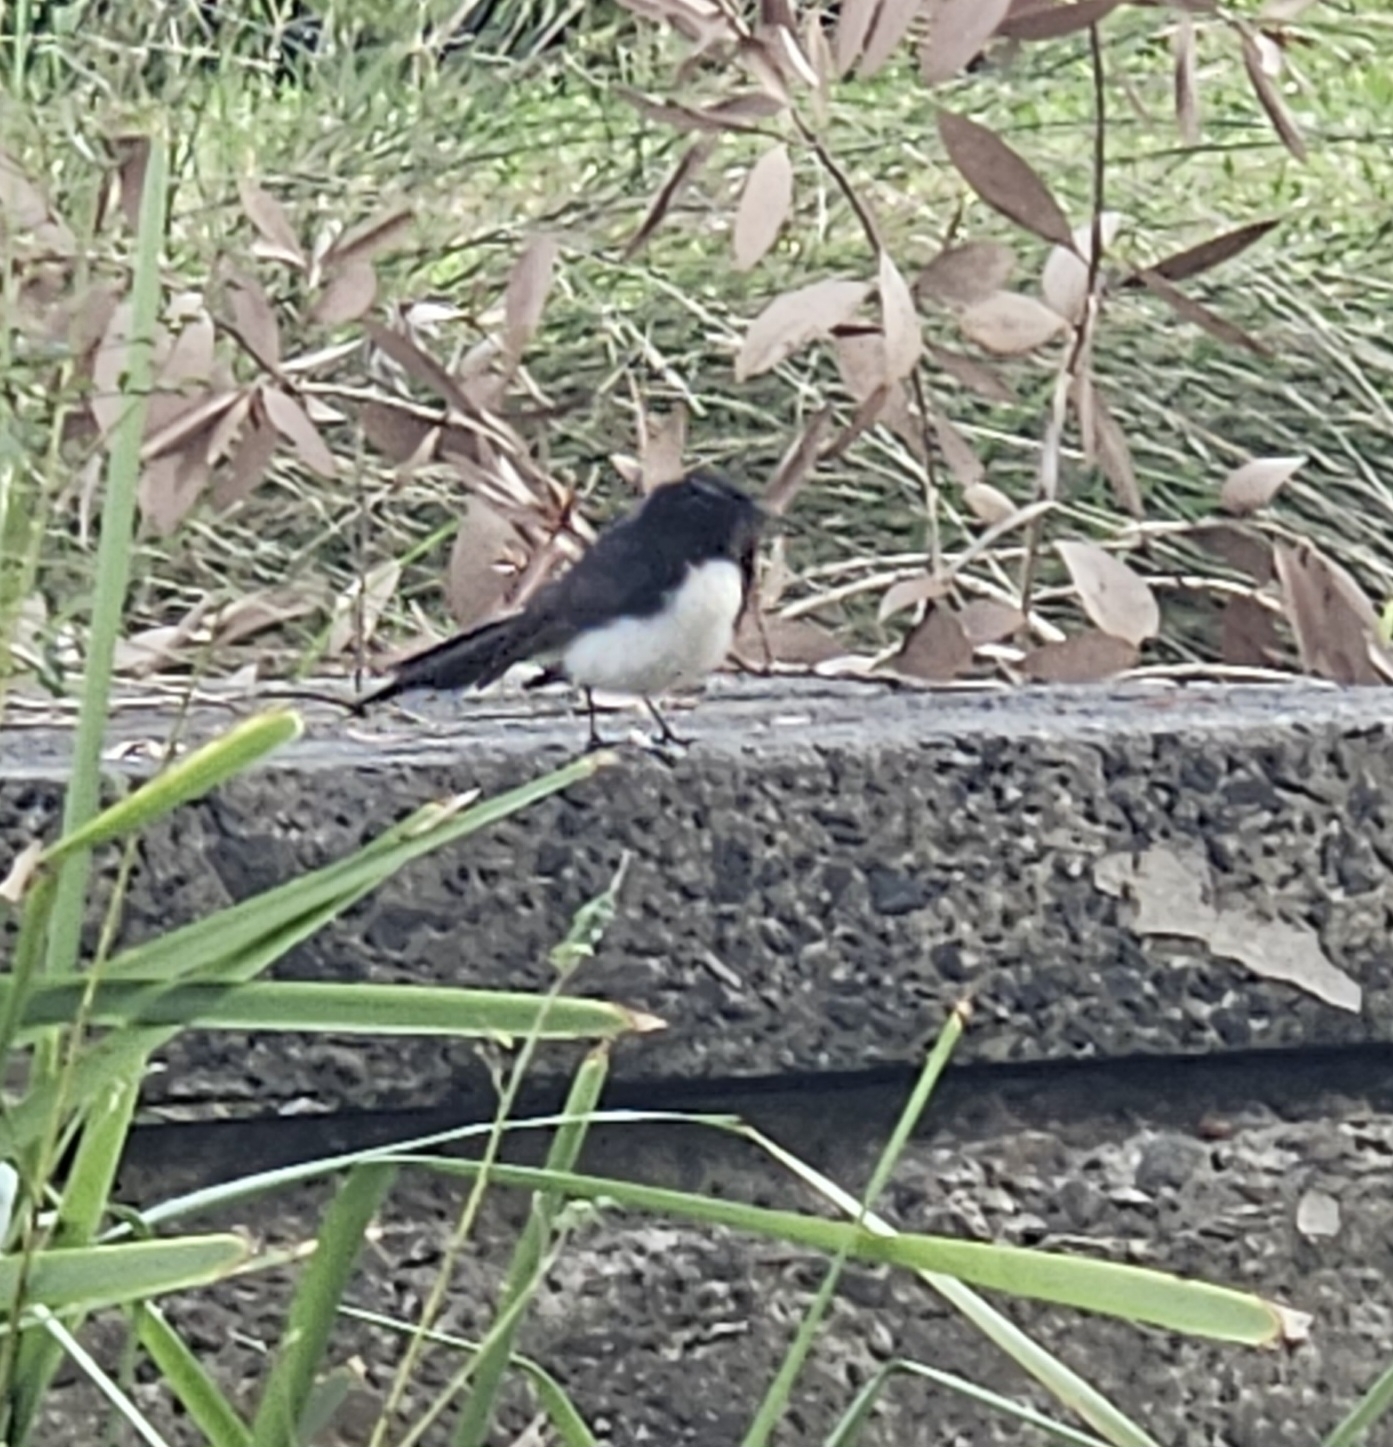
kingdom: Animalia
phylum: Chordata
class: Aves
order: Passeriformes
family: Rhipiduridae
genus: Rhipidura
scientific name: Rhipidura leucophrys
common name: Willie wagtail
